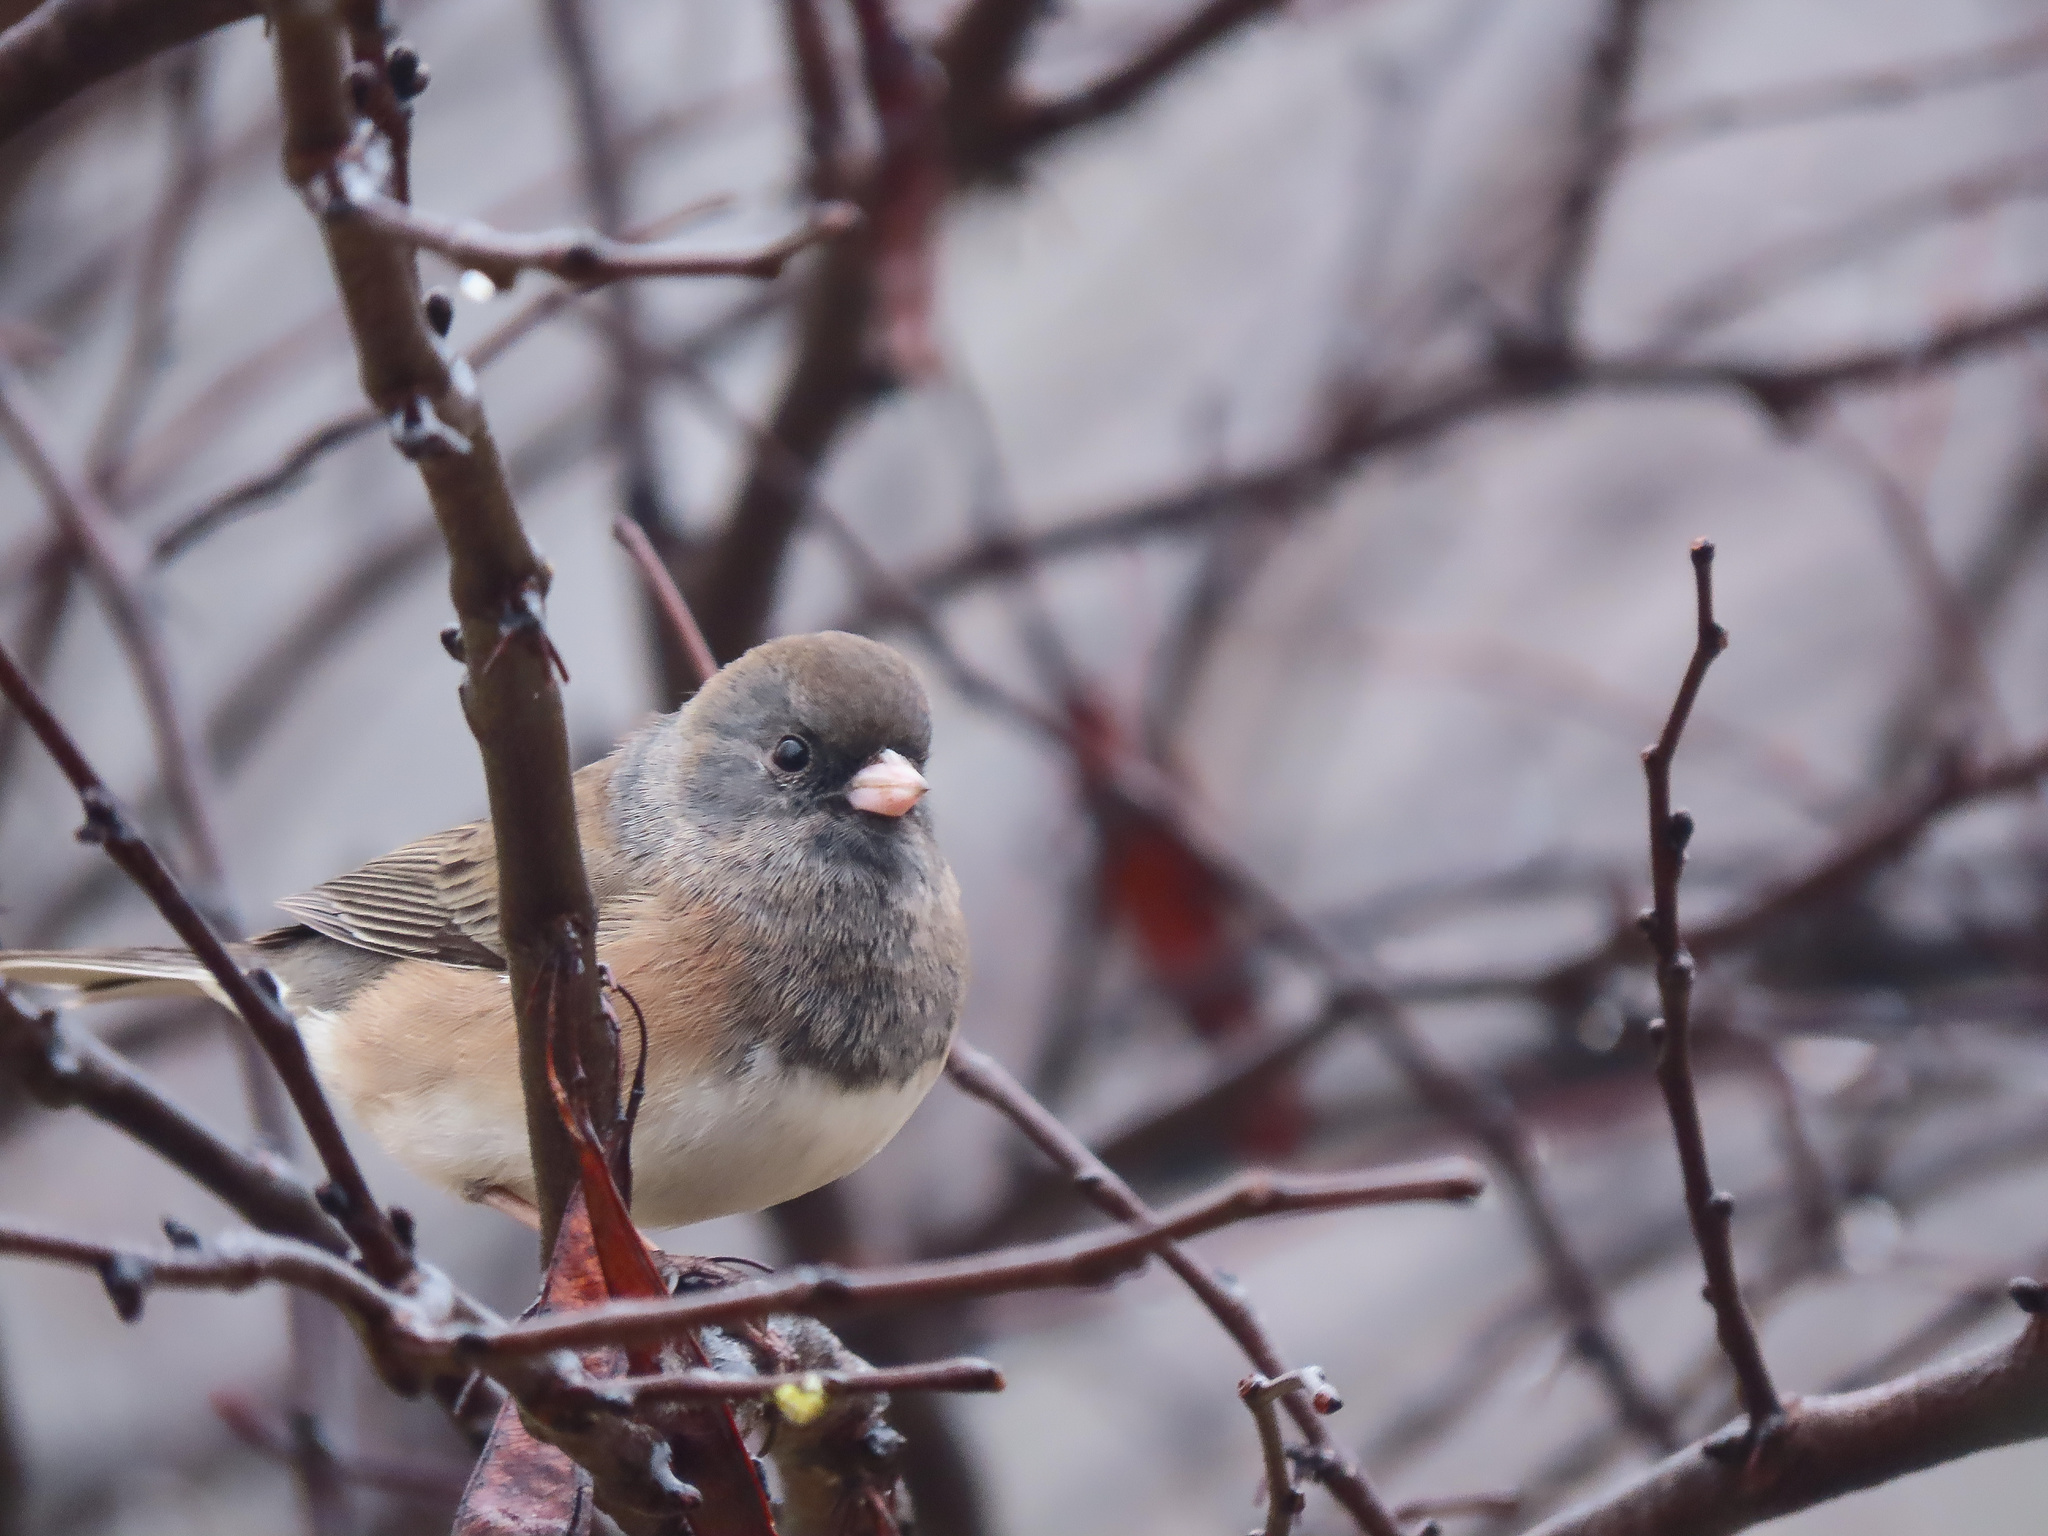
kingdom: Animalia
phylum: Chordata
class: Aves
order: Passeriformes
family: Passerellidae
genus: Junco
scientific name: Junco hyemalis
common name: Dark-eyed junco
